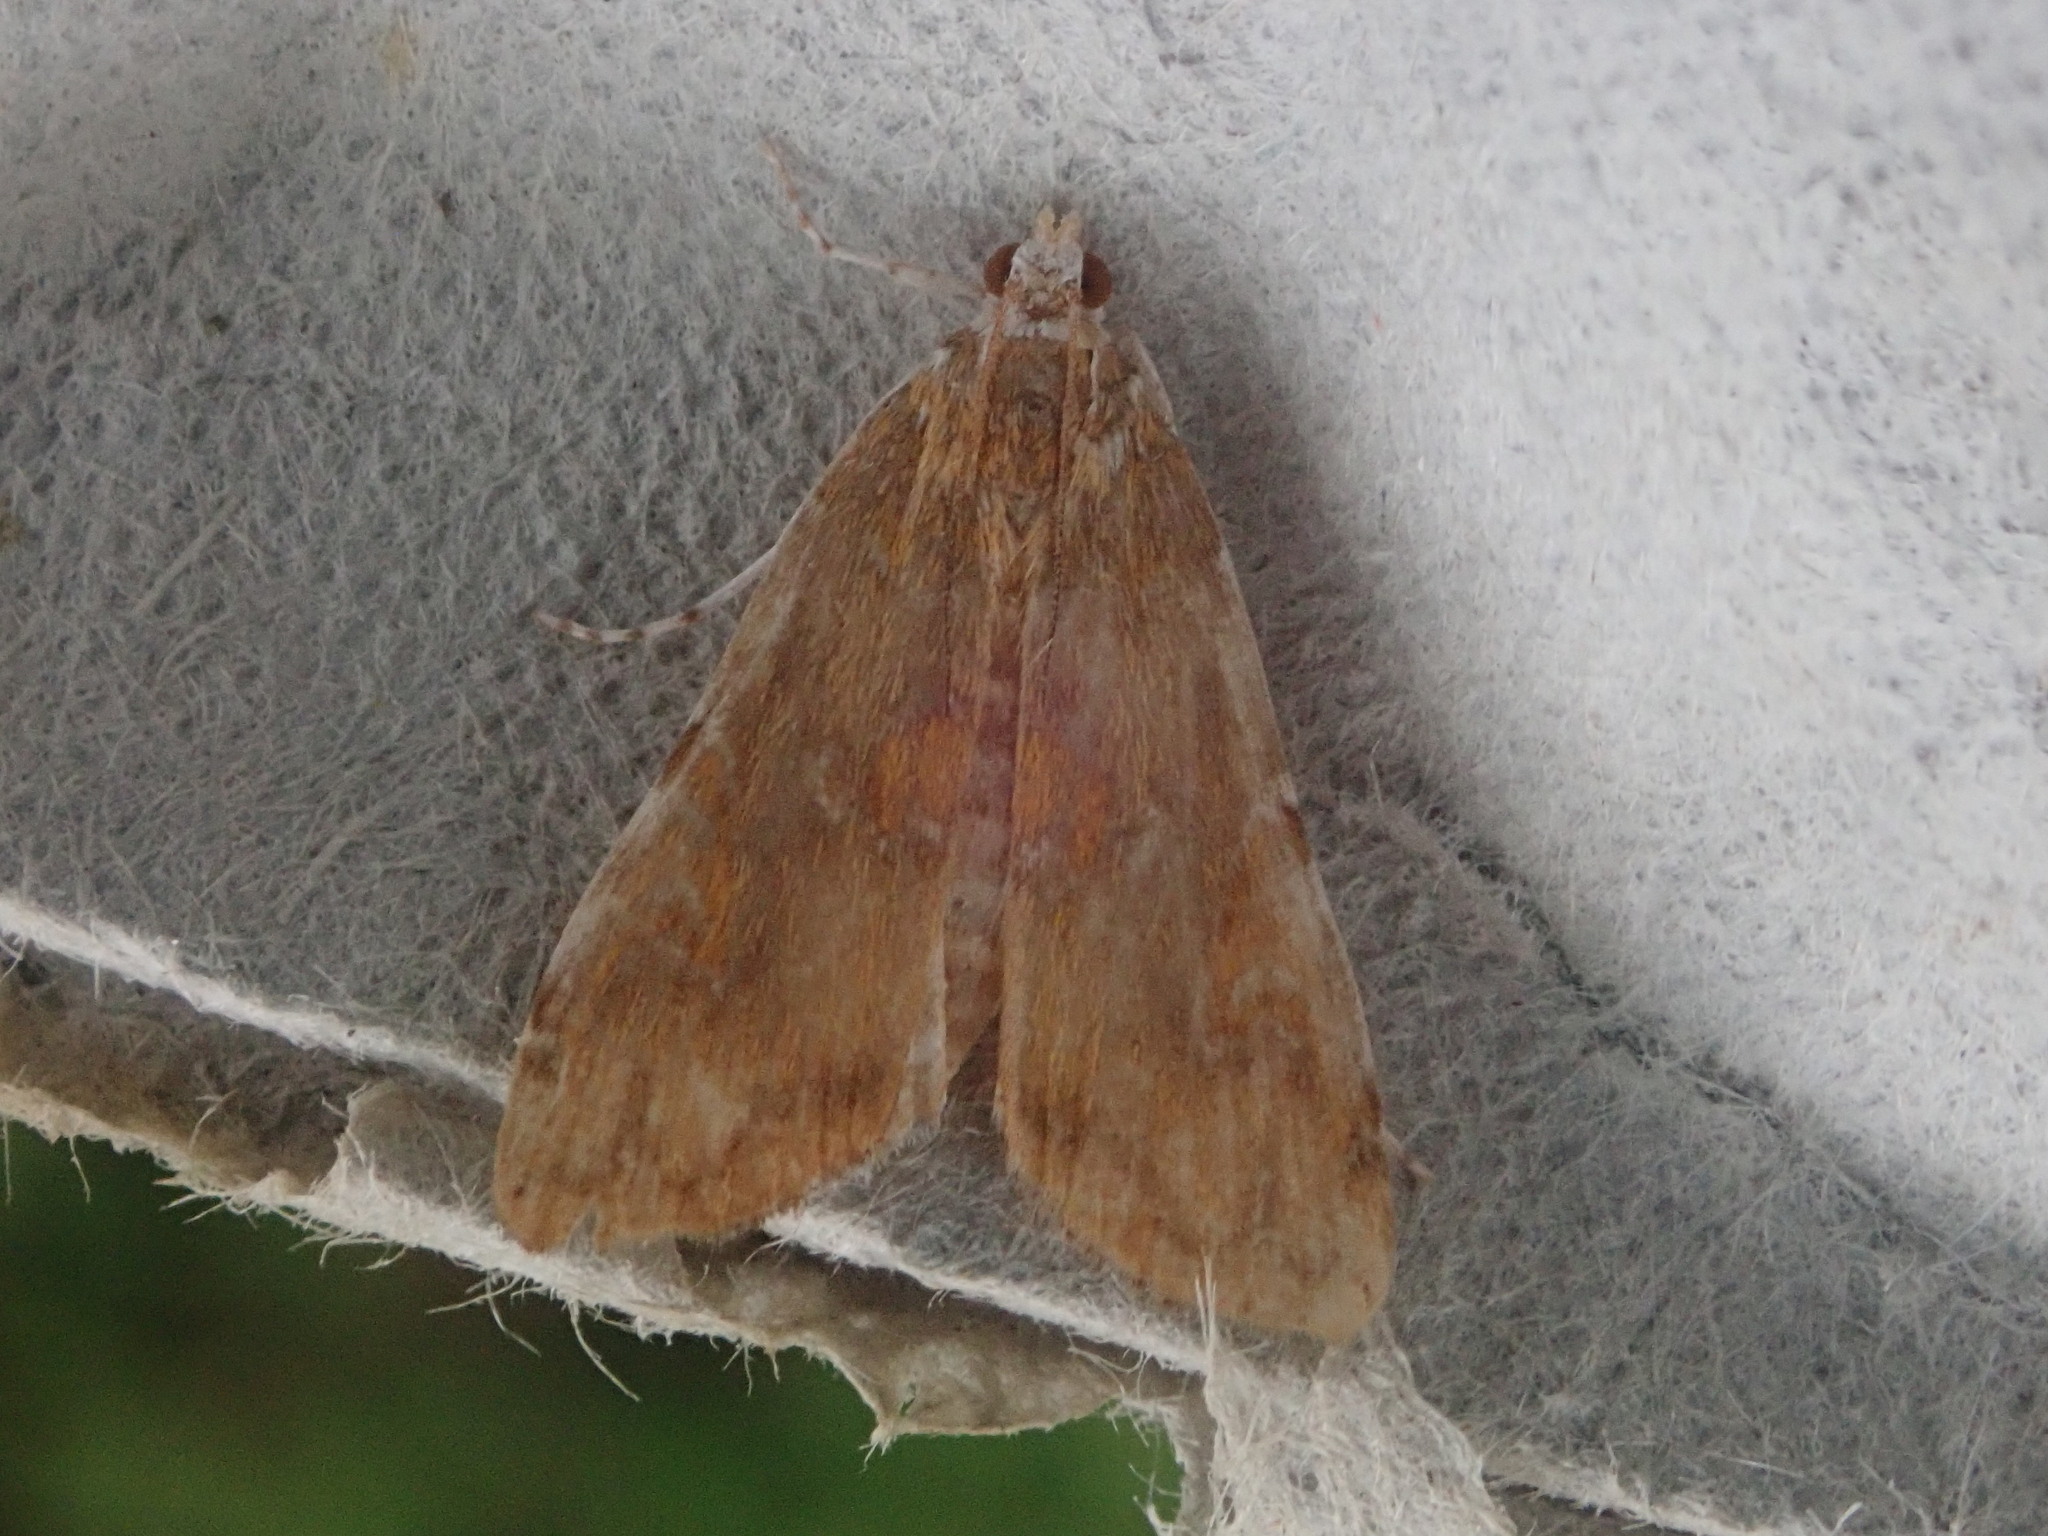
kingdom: Animalia
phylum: Arthropoda
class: Insecta
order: Lepidoptera
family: Crambidae
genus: Elophila
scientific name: Elophila gyralis
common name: Waterlily borer moth
